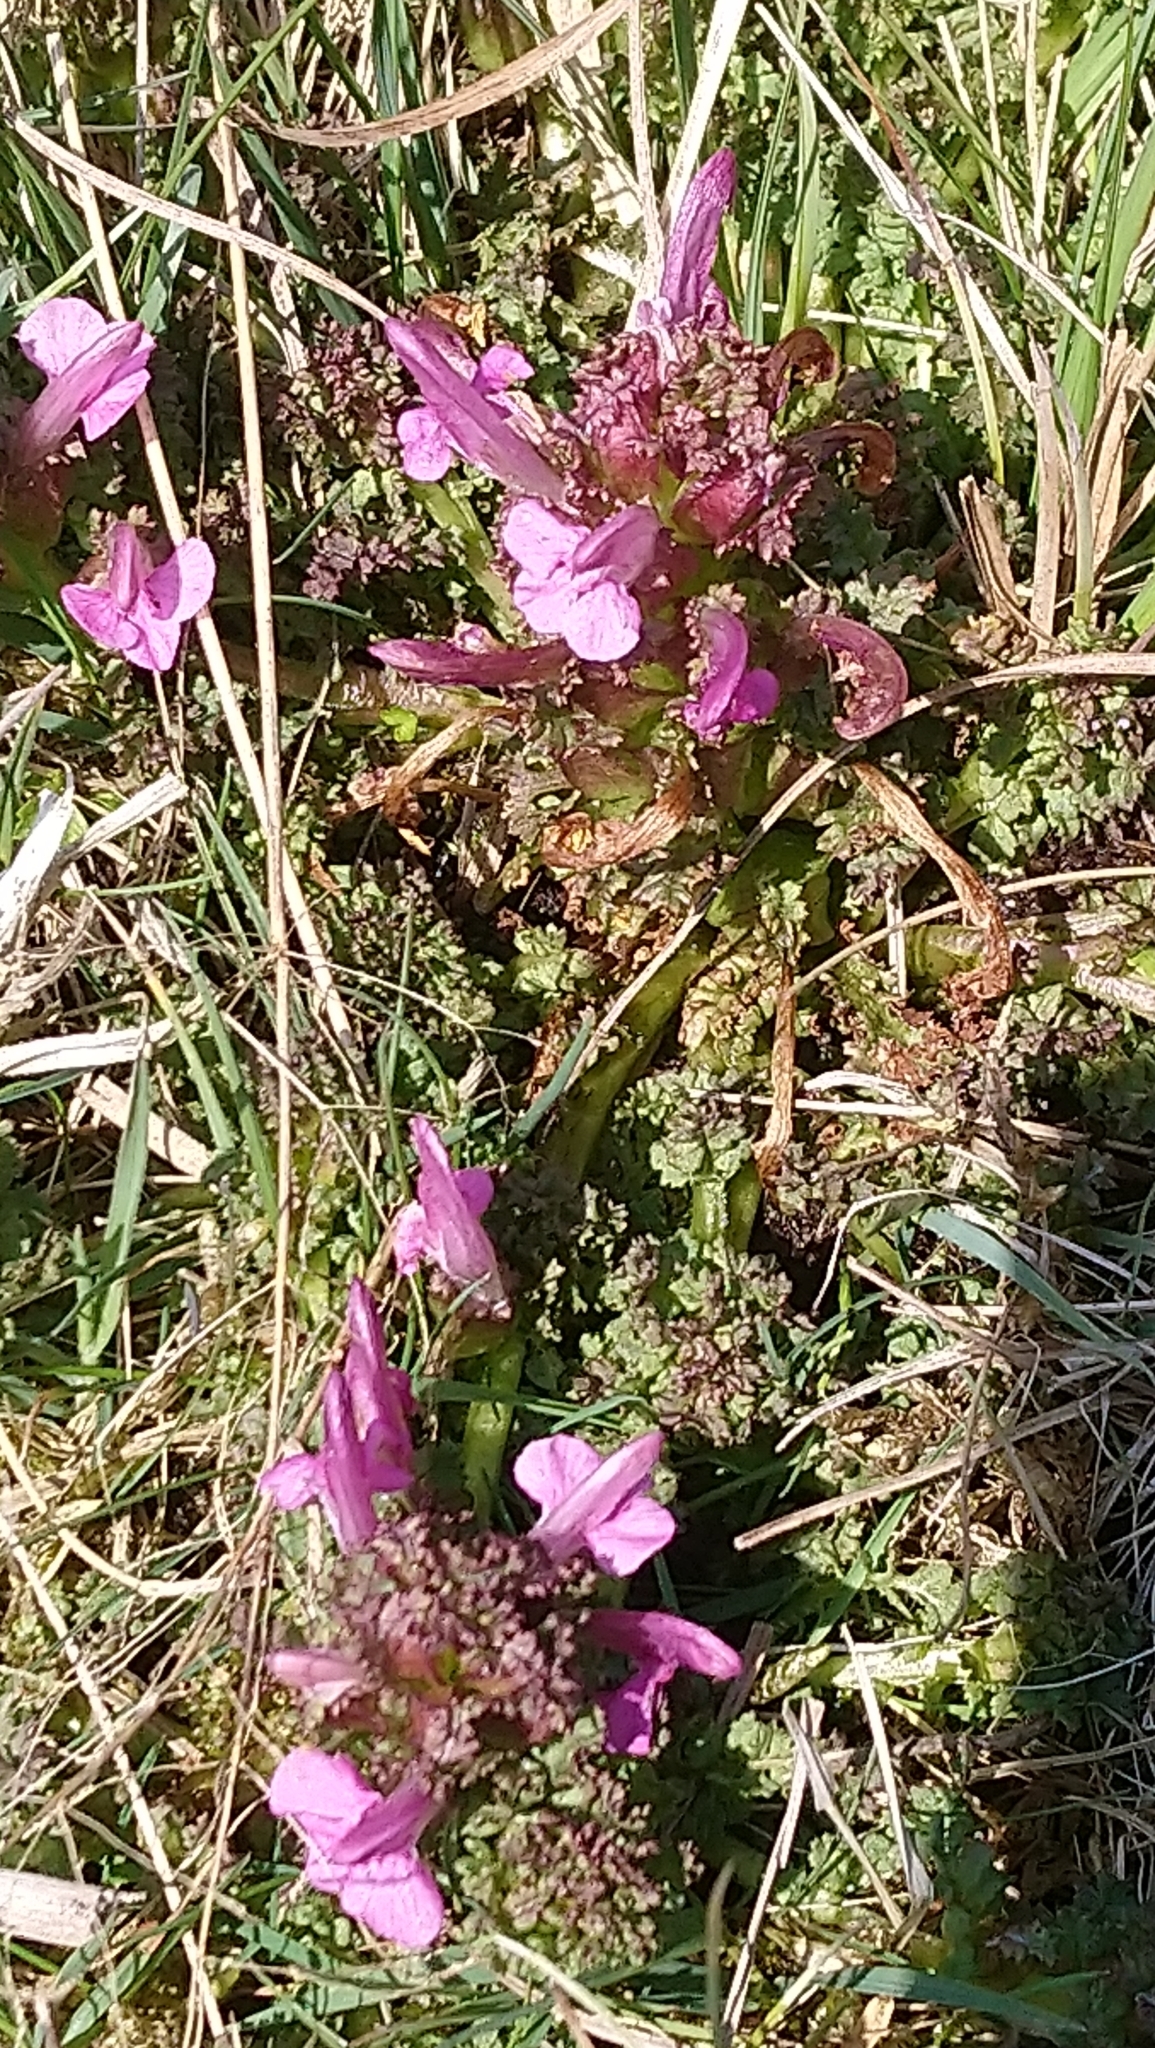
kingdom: Plantae
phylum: Tracheophyta
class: Magnoliopsida
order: Lamiales
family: Orobanchaceae
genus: Pedicularis
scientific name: Pedicularis sylvatica
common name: Lousewort
